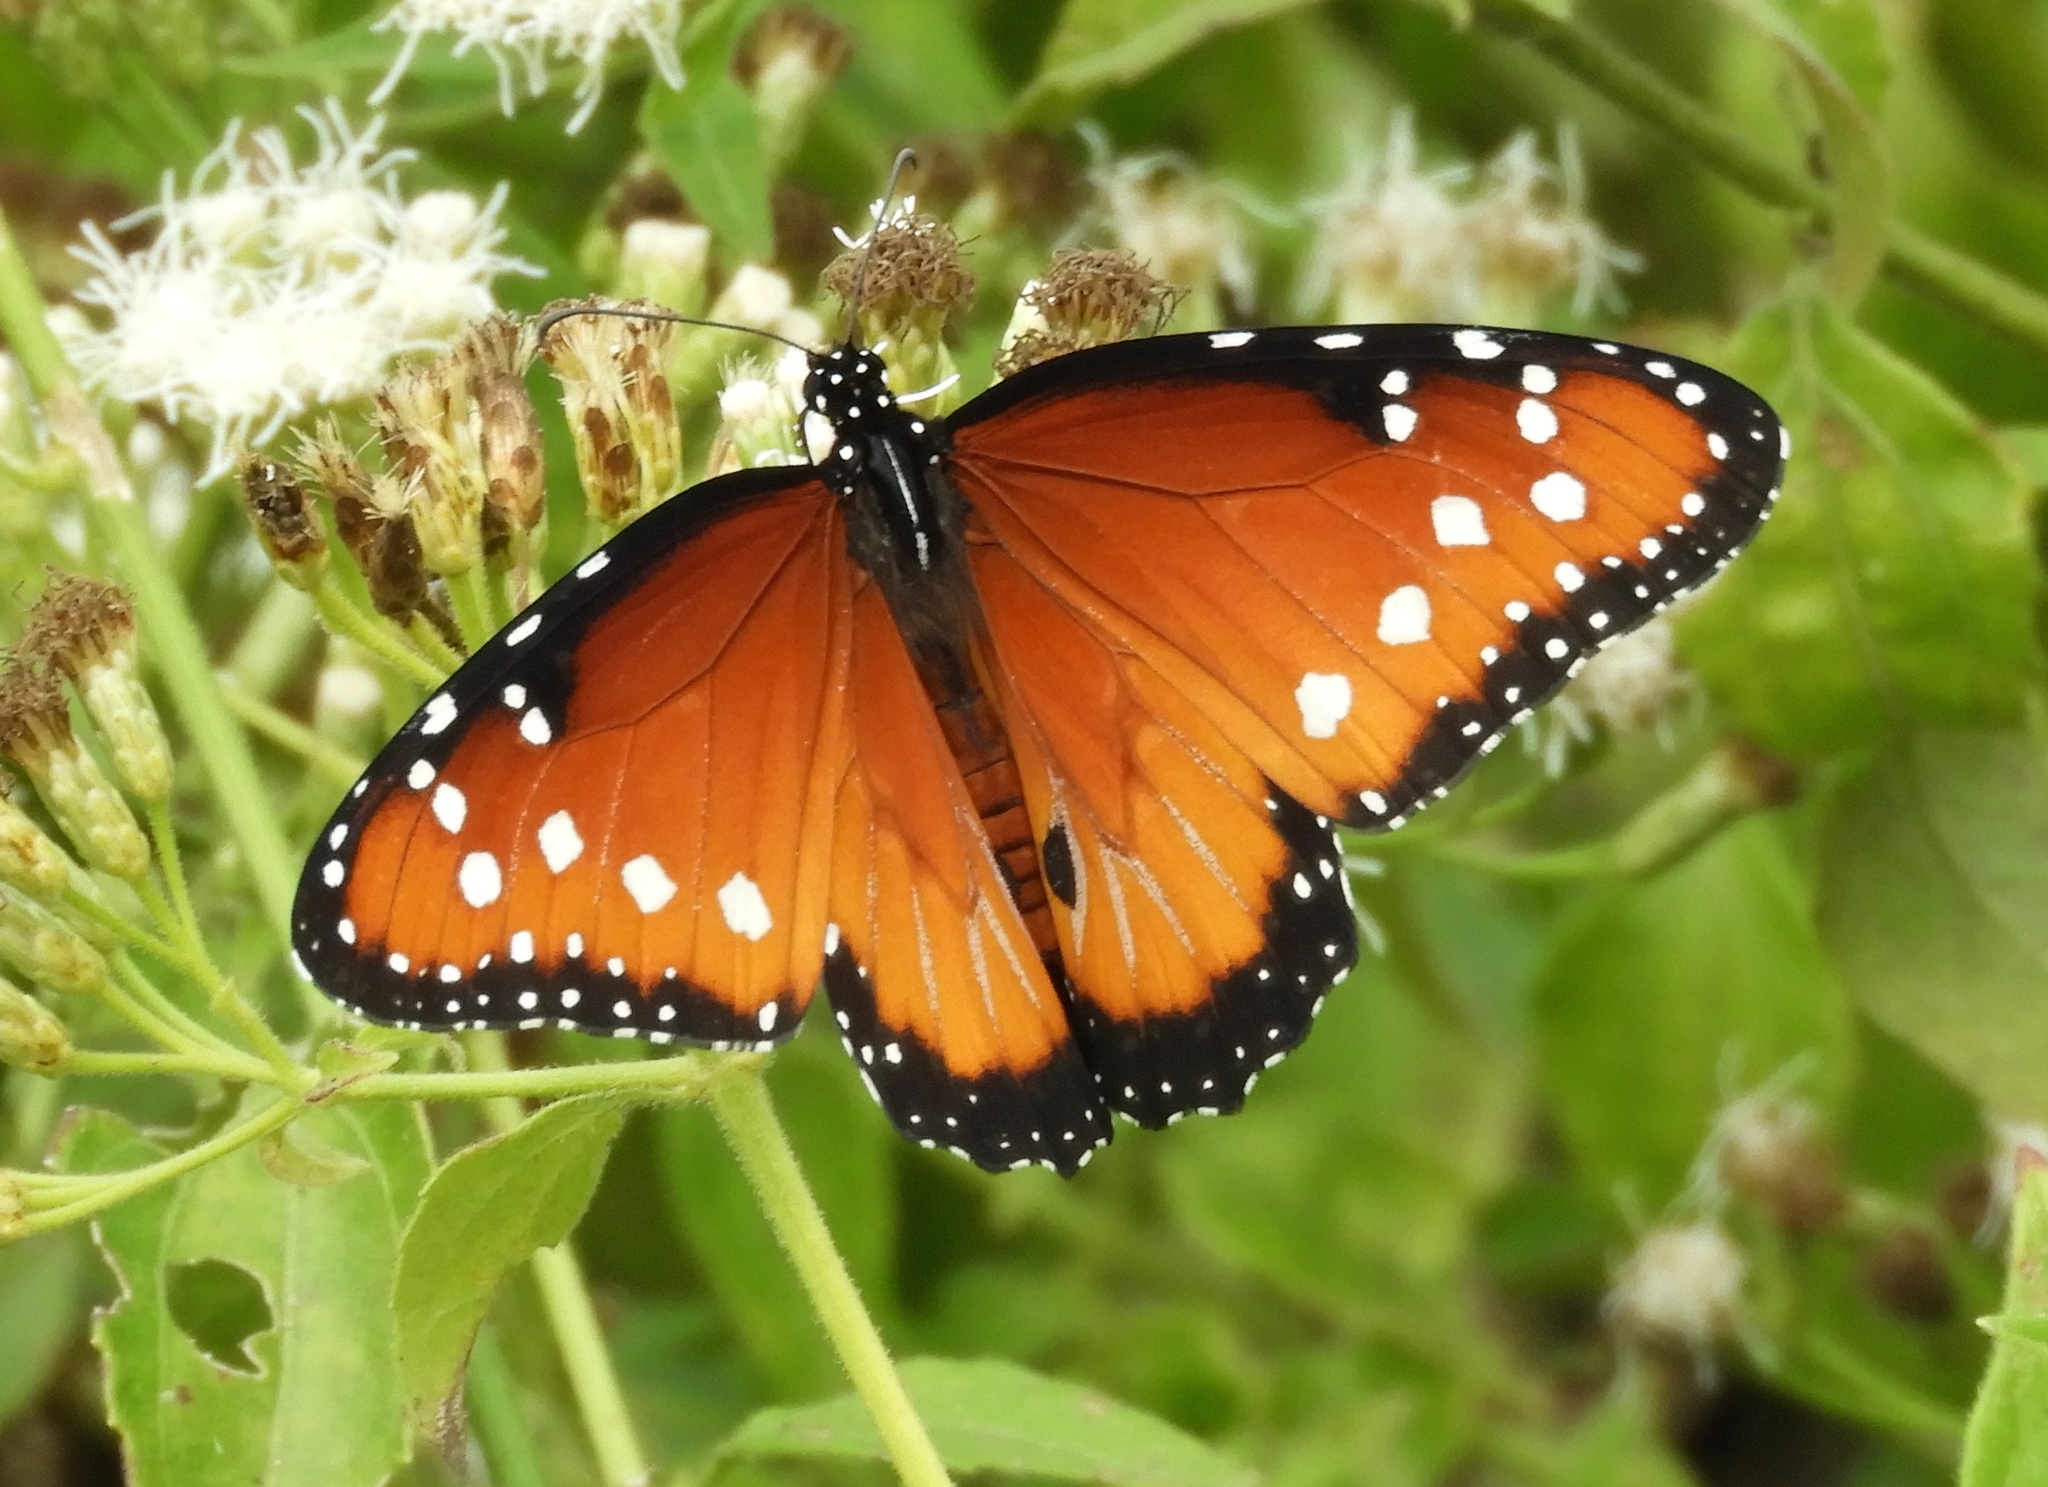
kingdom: Animalia
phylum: Arthropoda
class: Insecta
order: Lepidoptera
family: Nymphalidae
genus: Danaus
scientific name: Danaus gilippus
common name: Queen
